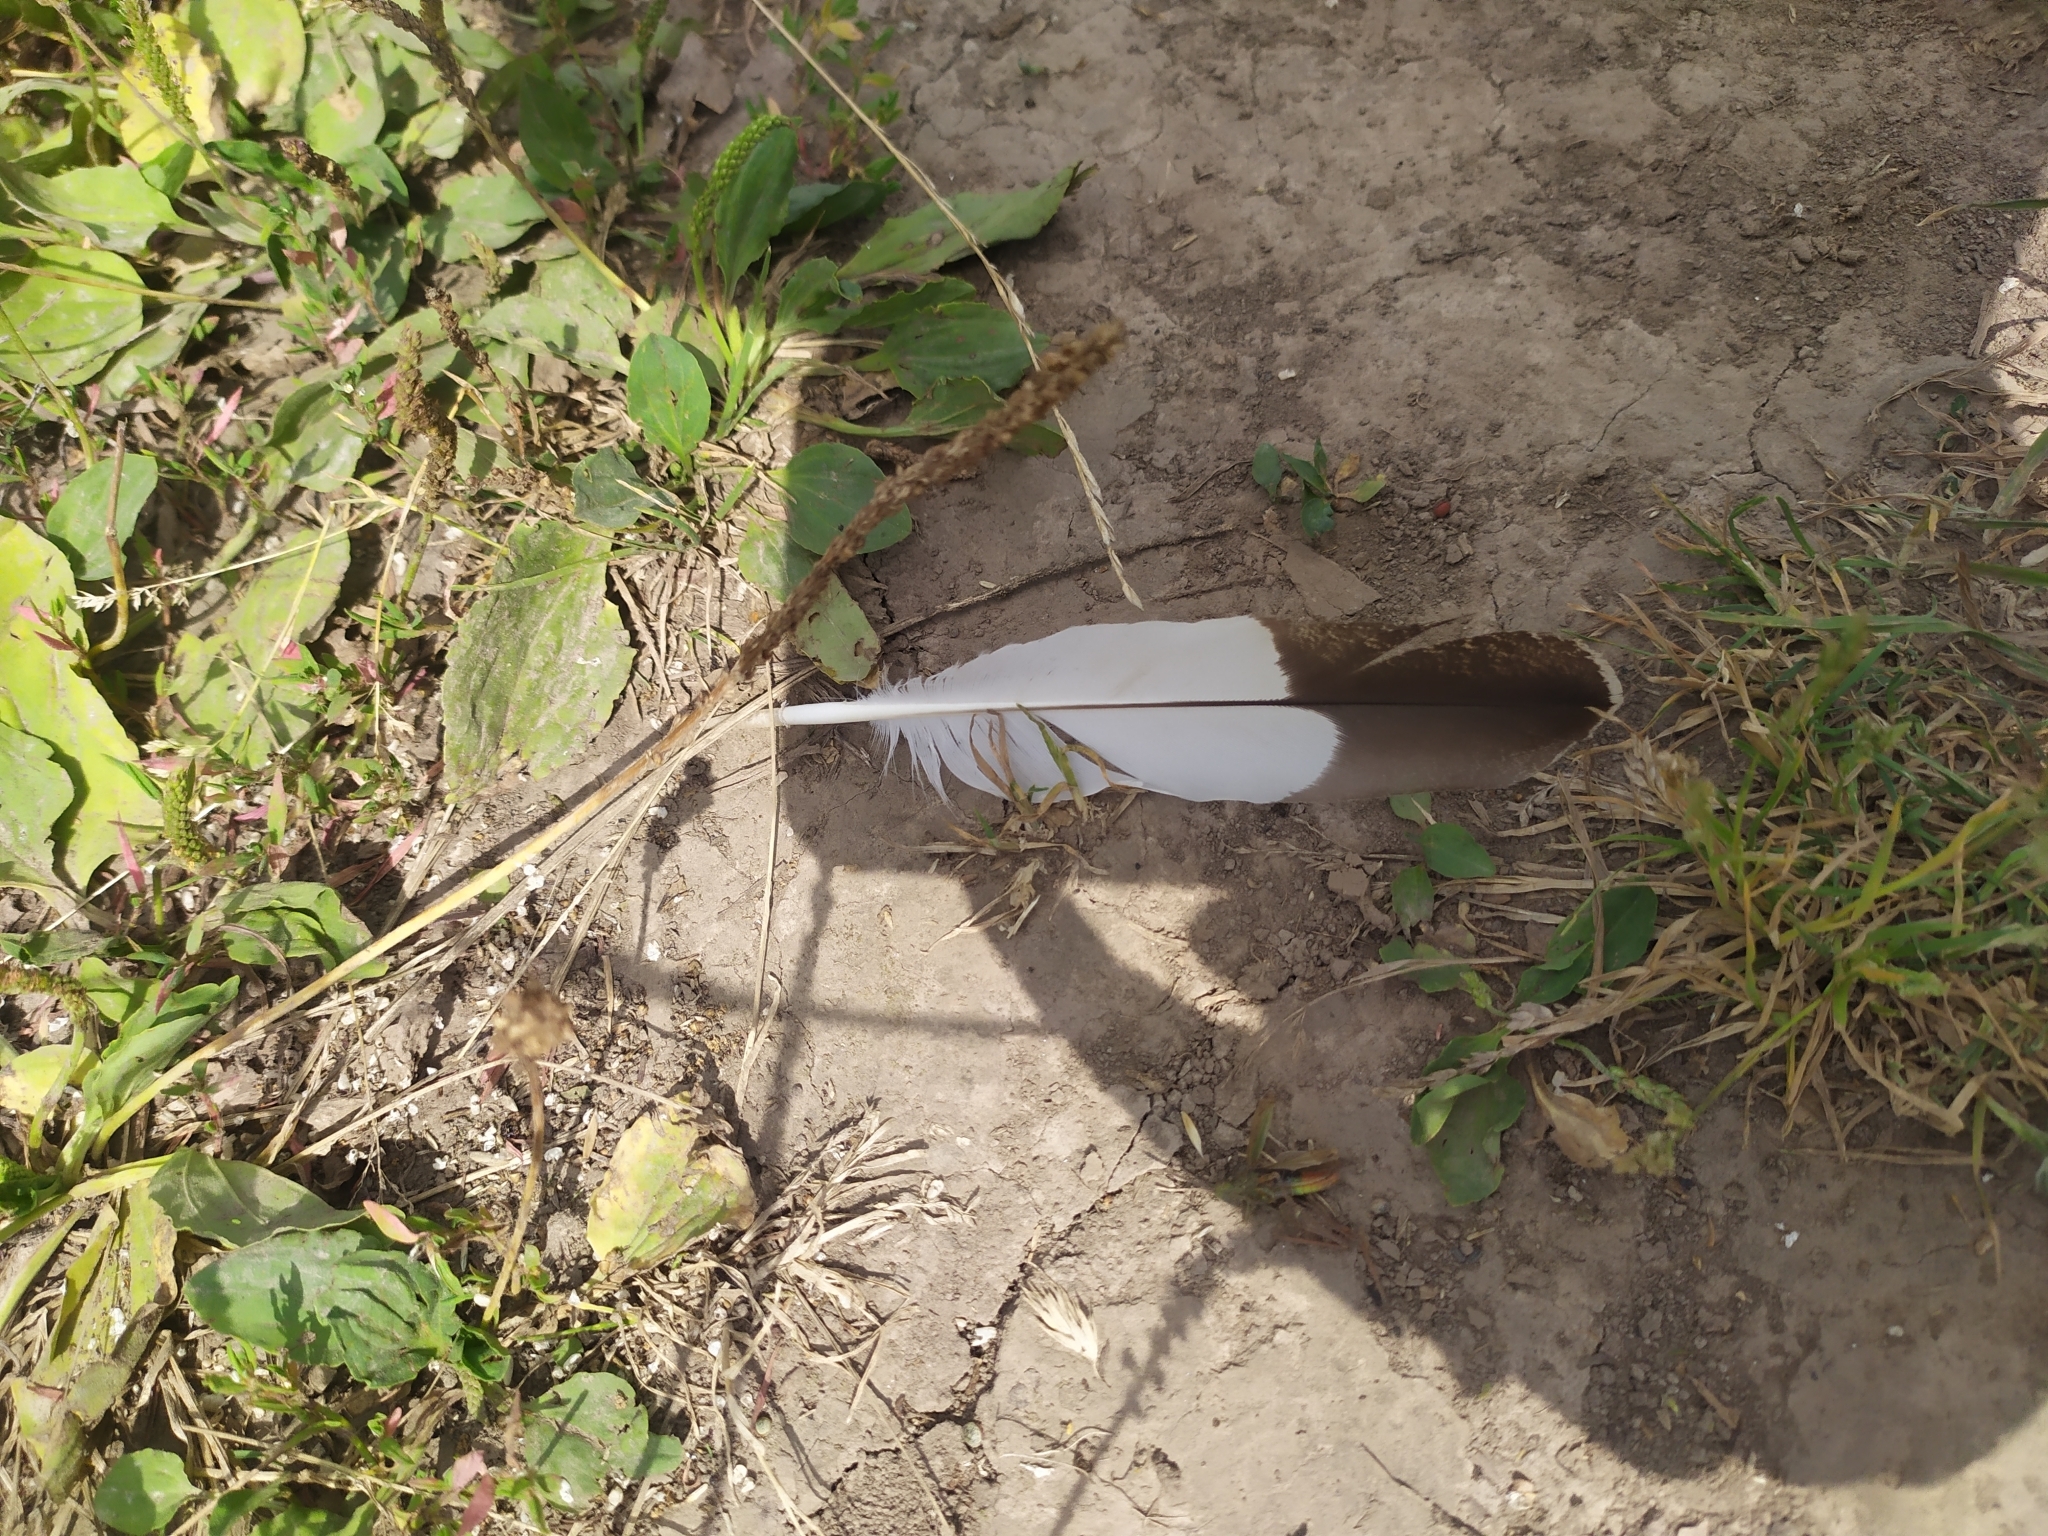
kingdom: Animalia
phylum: Chordata
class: Aves
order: Galliformes
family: Phasianidae
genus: Lyrurus
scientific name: Lyrurus tetrix
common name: Black grouse
